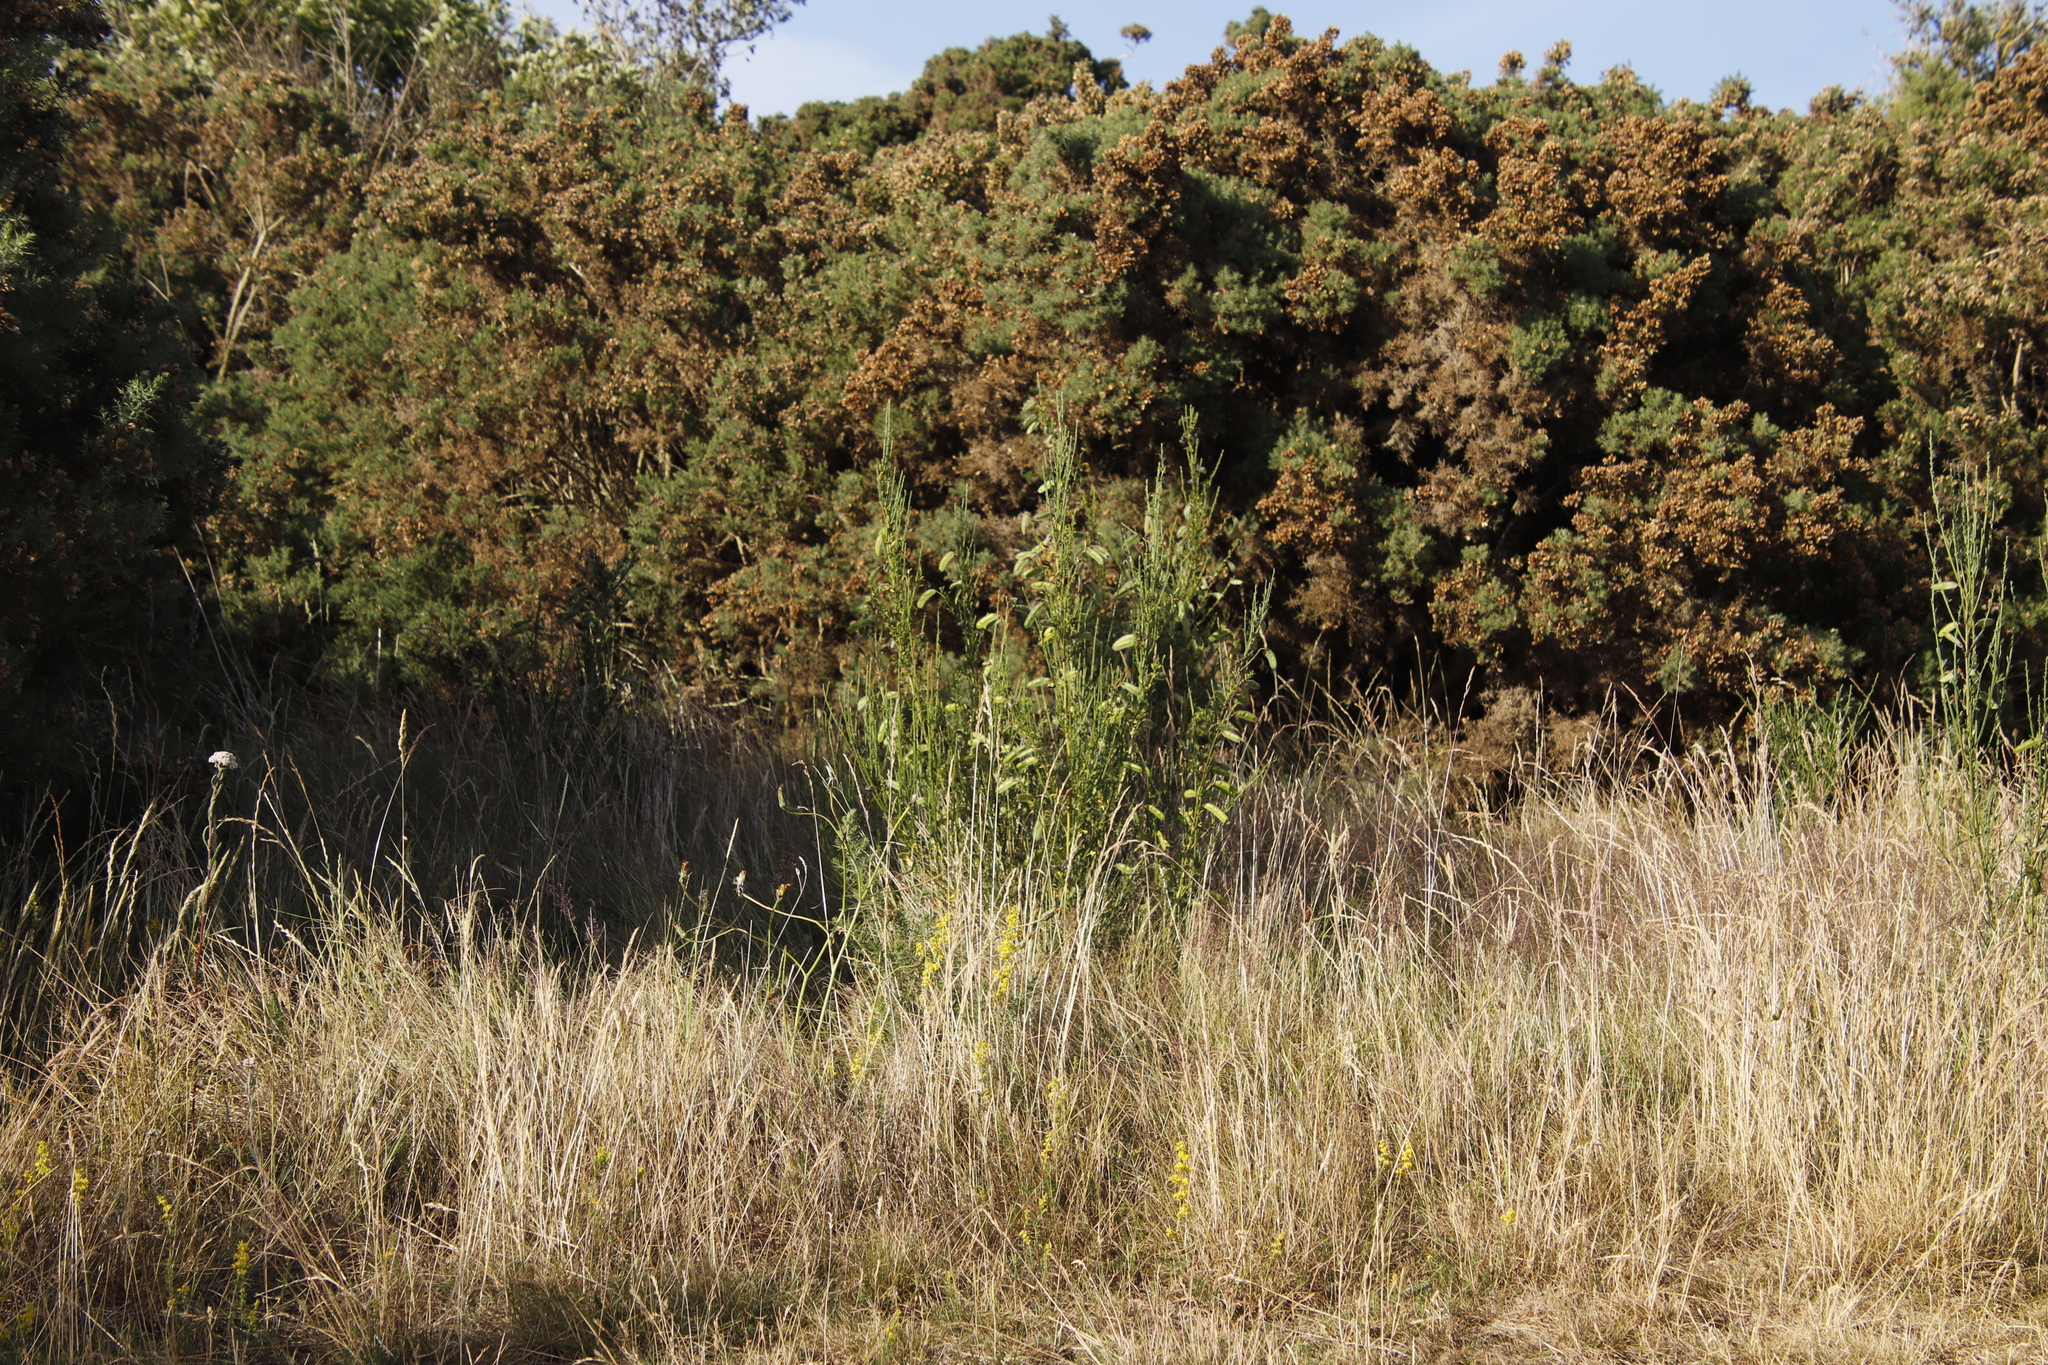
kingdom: Plantae
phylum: Tracheophyta
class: Magnoliopsida
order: Fabales
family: Fabaceae
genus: Ulex
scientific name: Ulex europaeus
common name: Common gorse
